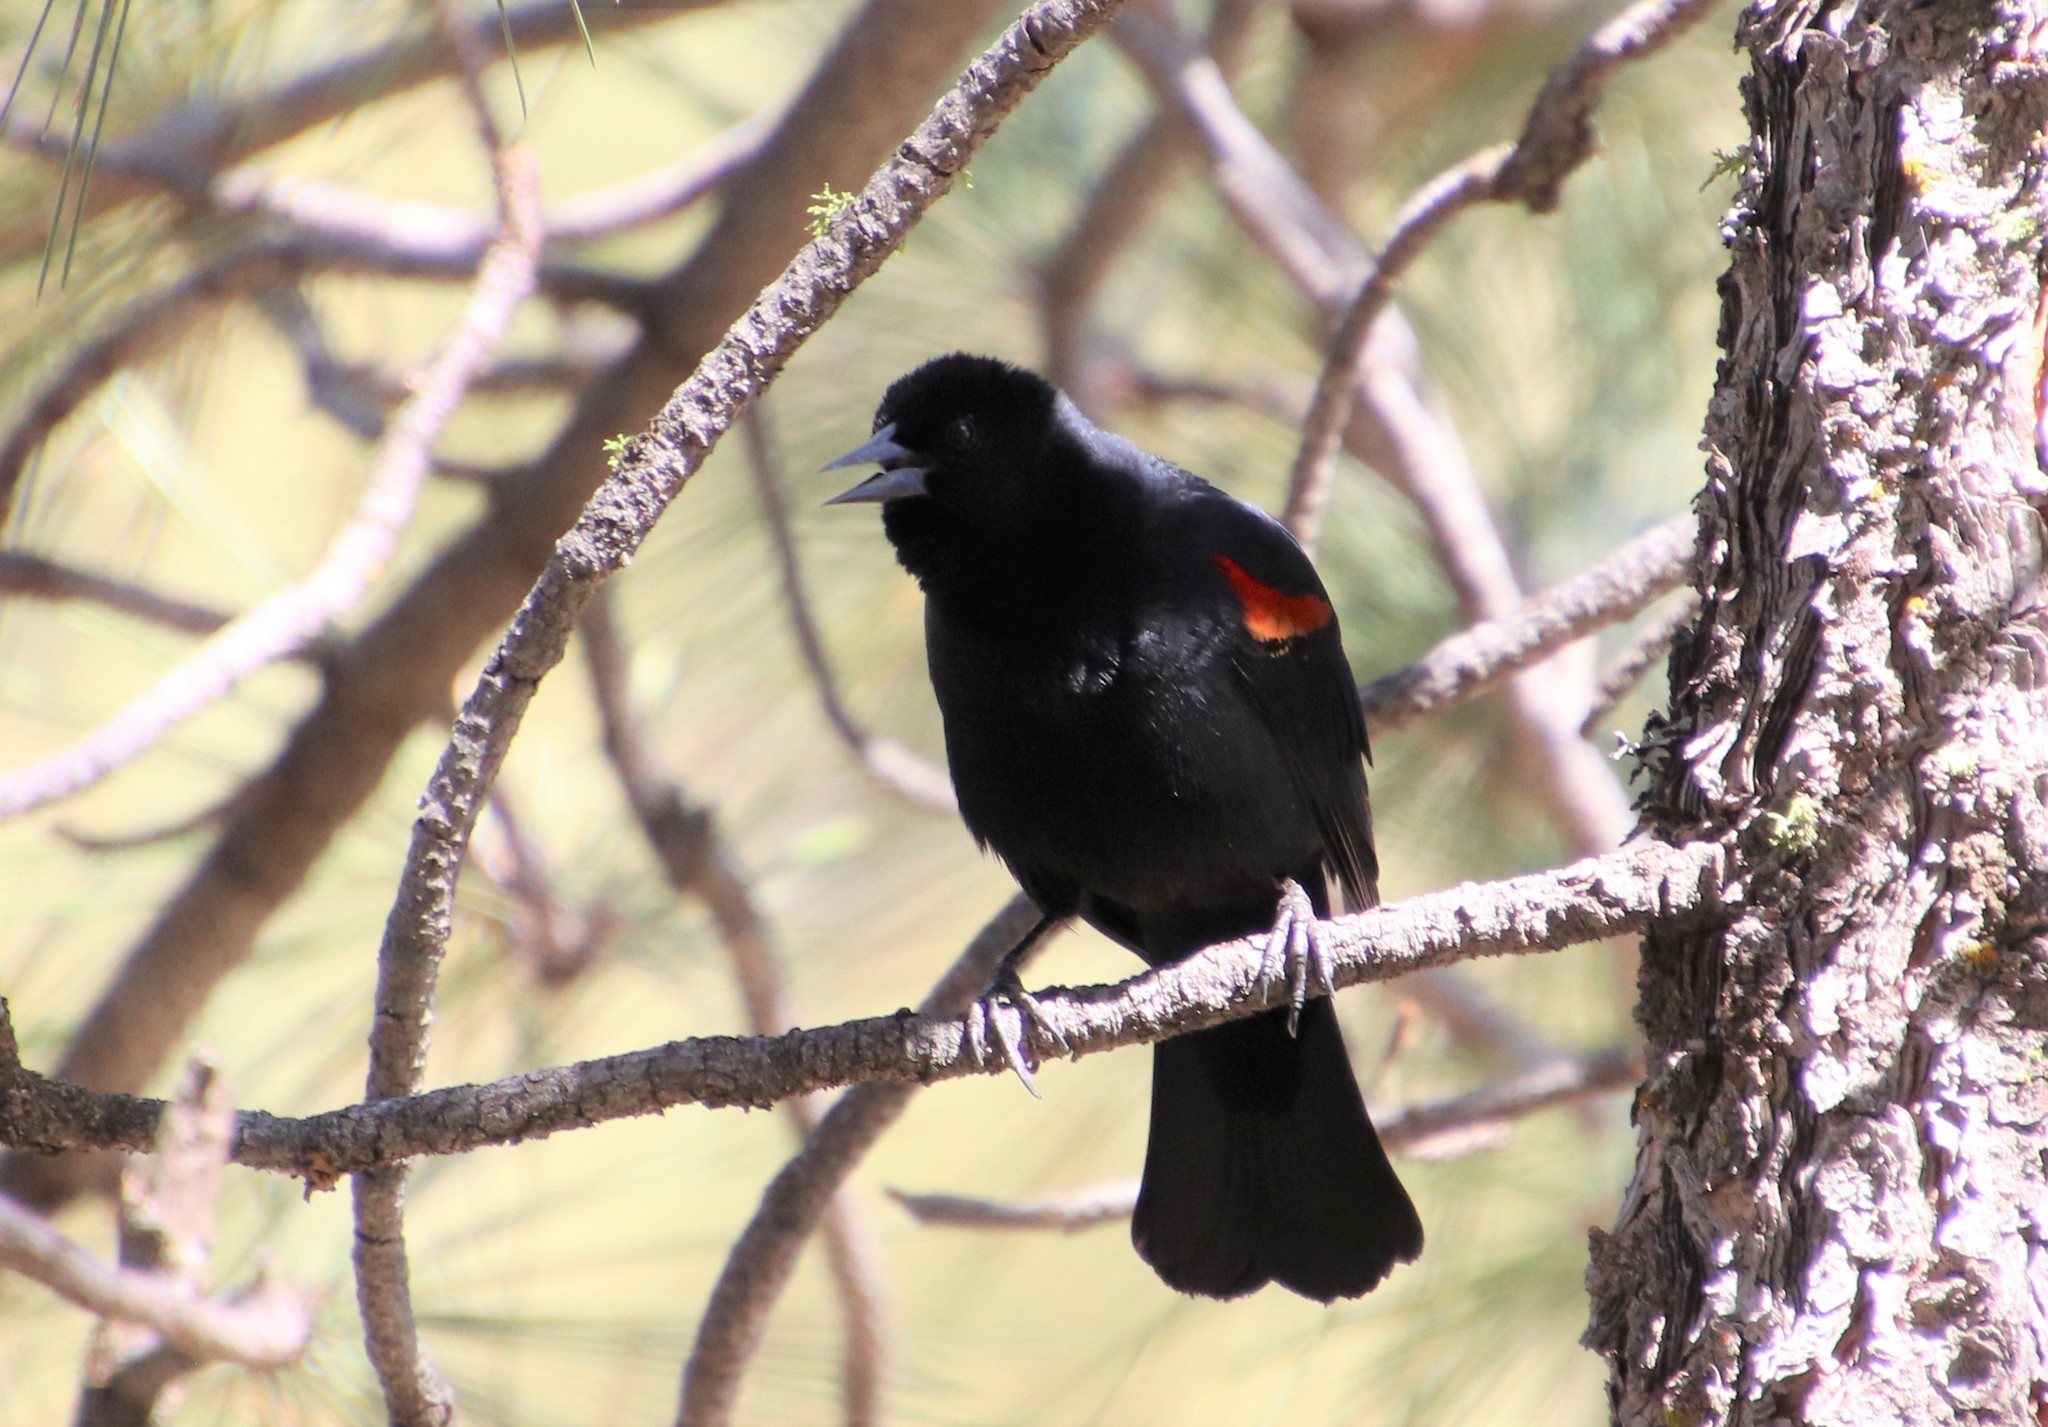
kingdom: Animalia
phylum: Chordata
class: Aves
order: Passeriformes
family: Icteridae
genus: Agelaius
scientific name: Agelaius phoeniceus
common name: Red-winged blackbird
